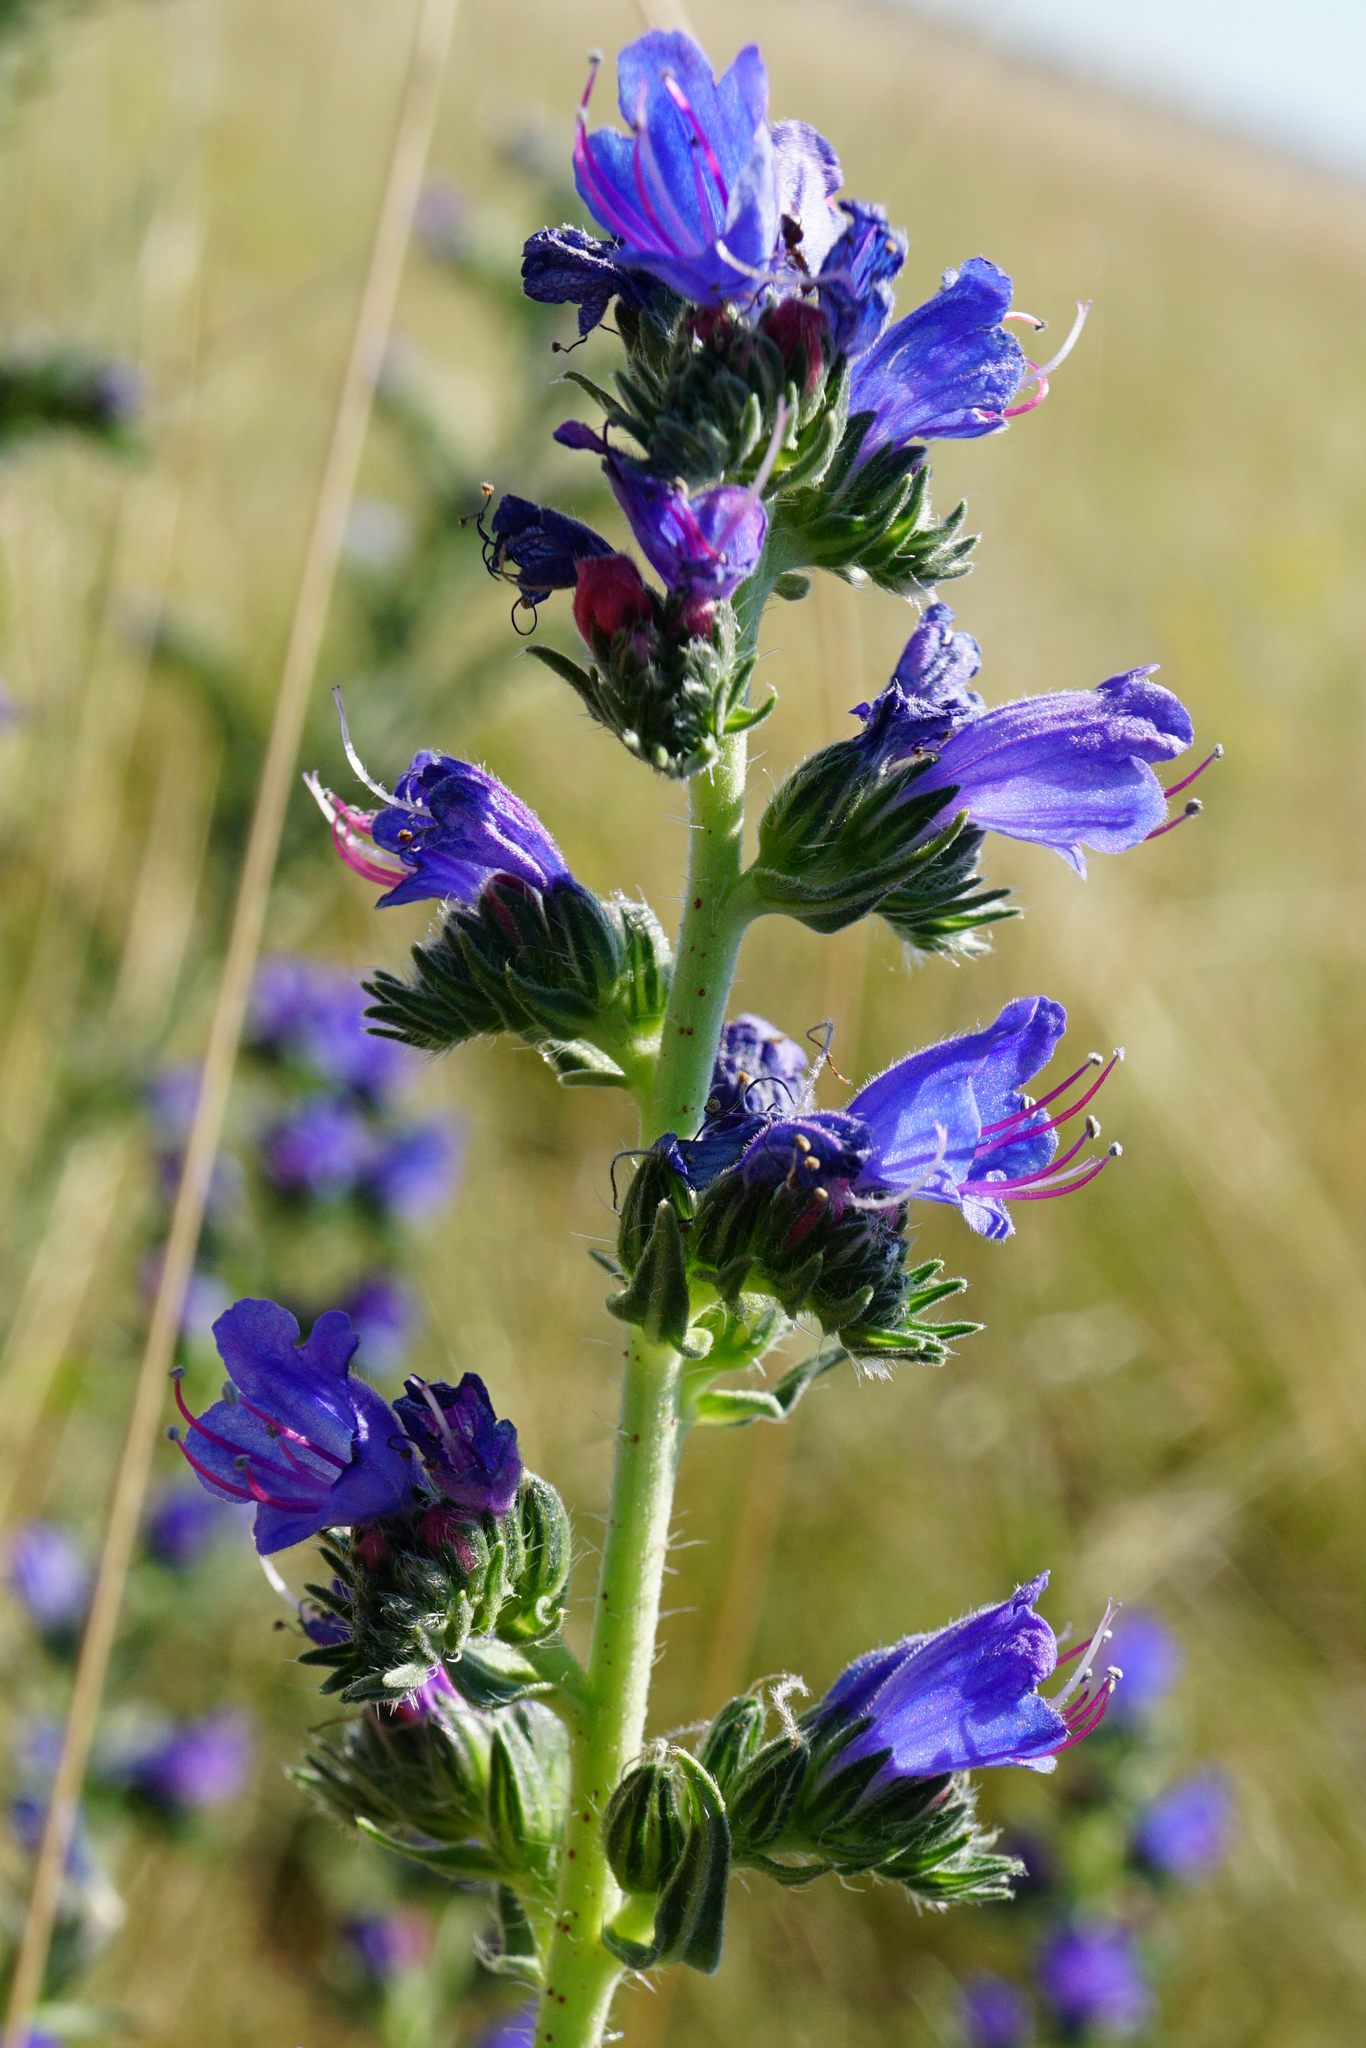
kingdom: Plantae
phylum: Tracheophyta
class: Magnoliopsida
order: Boraginales
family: Boraginaceae
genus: Echium
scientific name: Echium vulgare
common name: Common viper's bugloss
